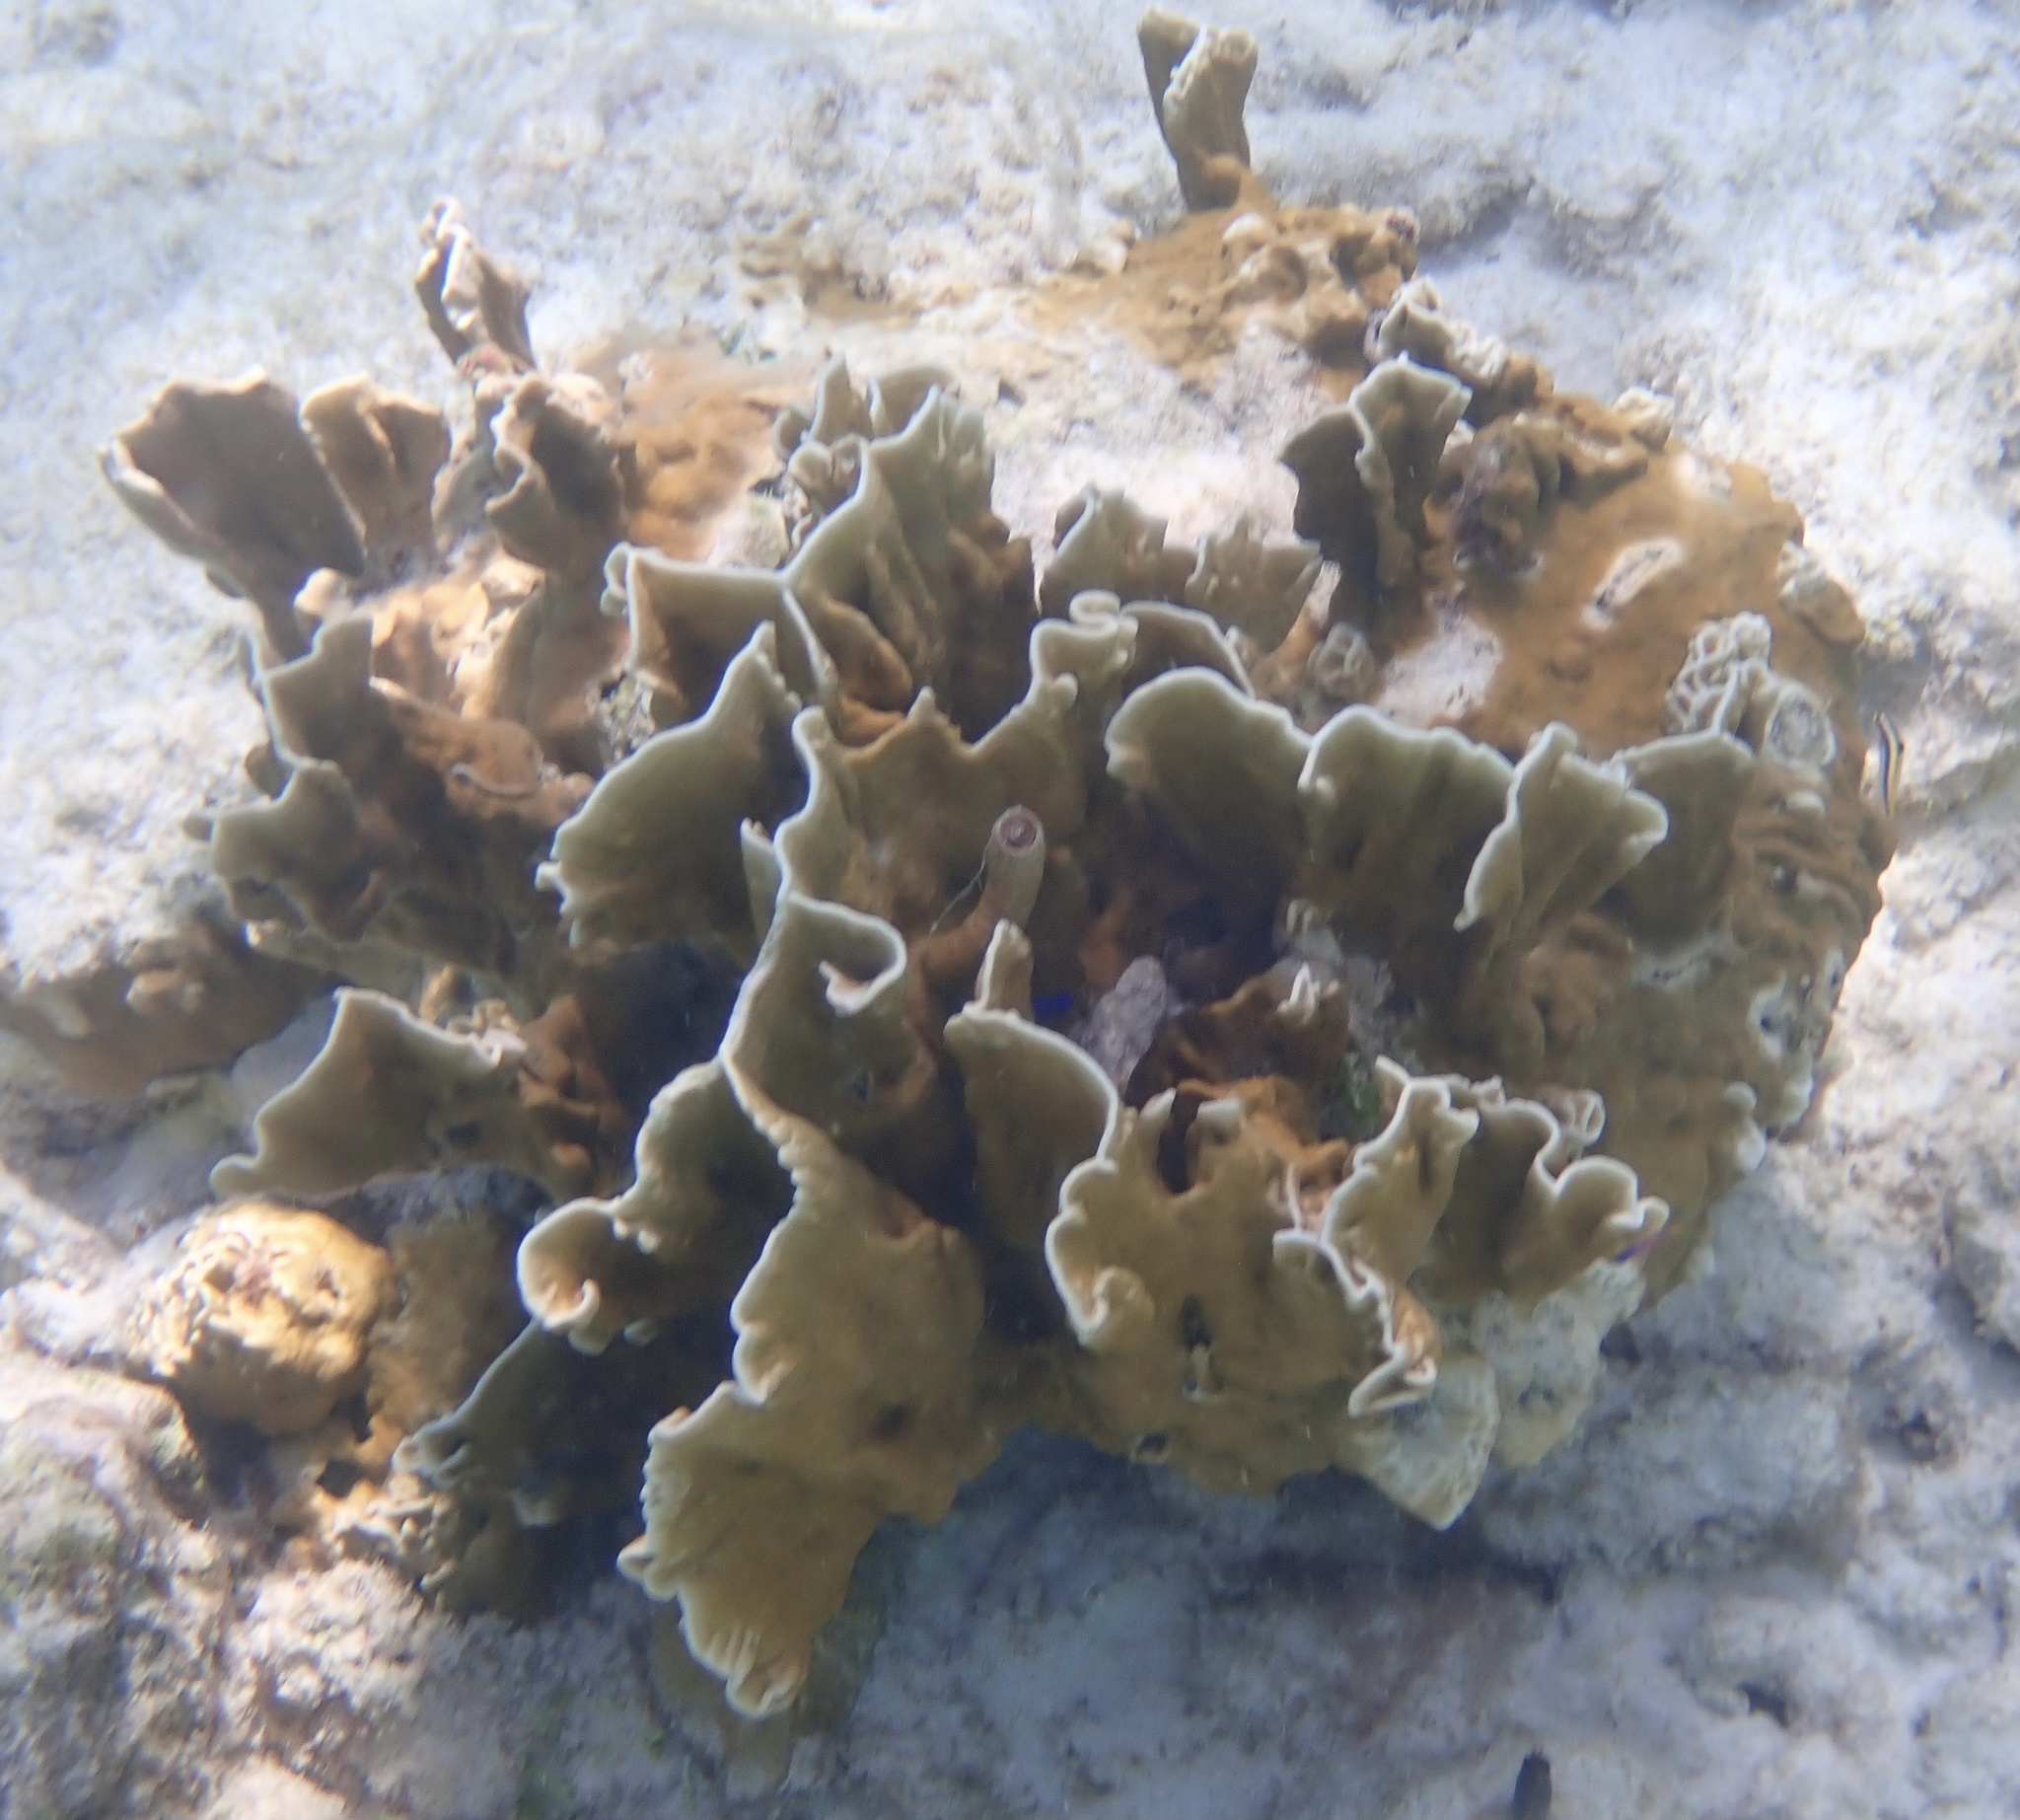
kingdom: Animalia
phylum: Cnidaria
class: Hydrozoa
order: Anthoathecata
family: Milleporidae
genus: Millepora
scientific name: Millepora complanata
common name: Bladed fire coral
